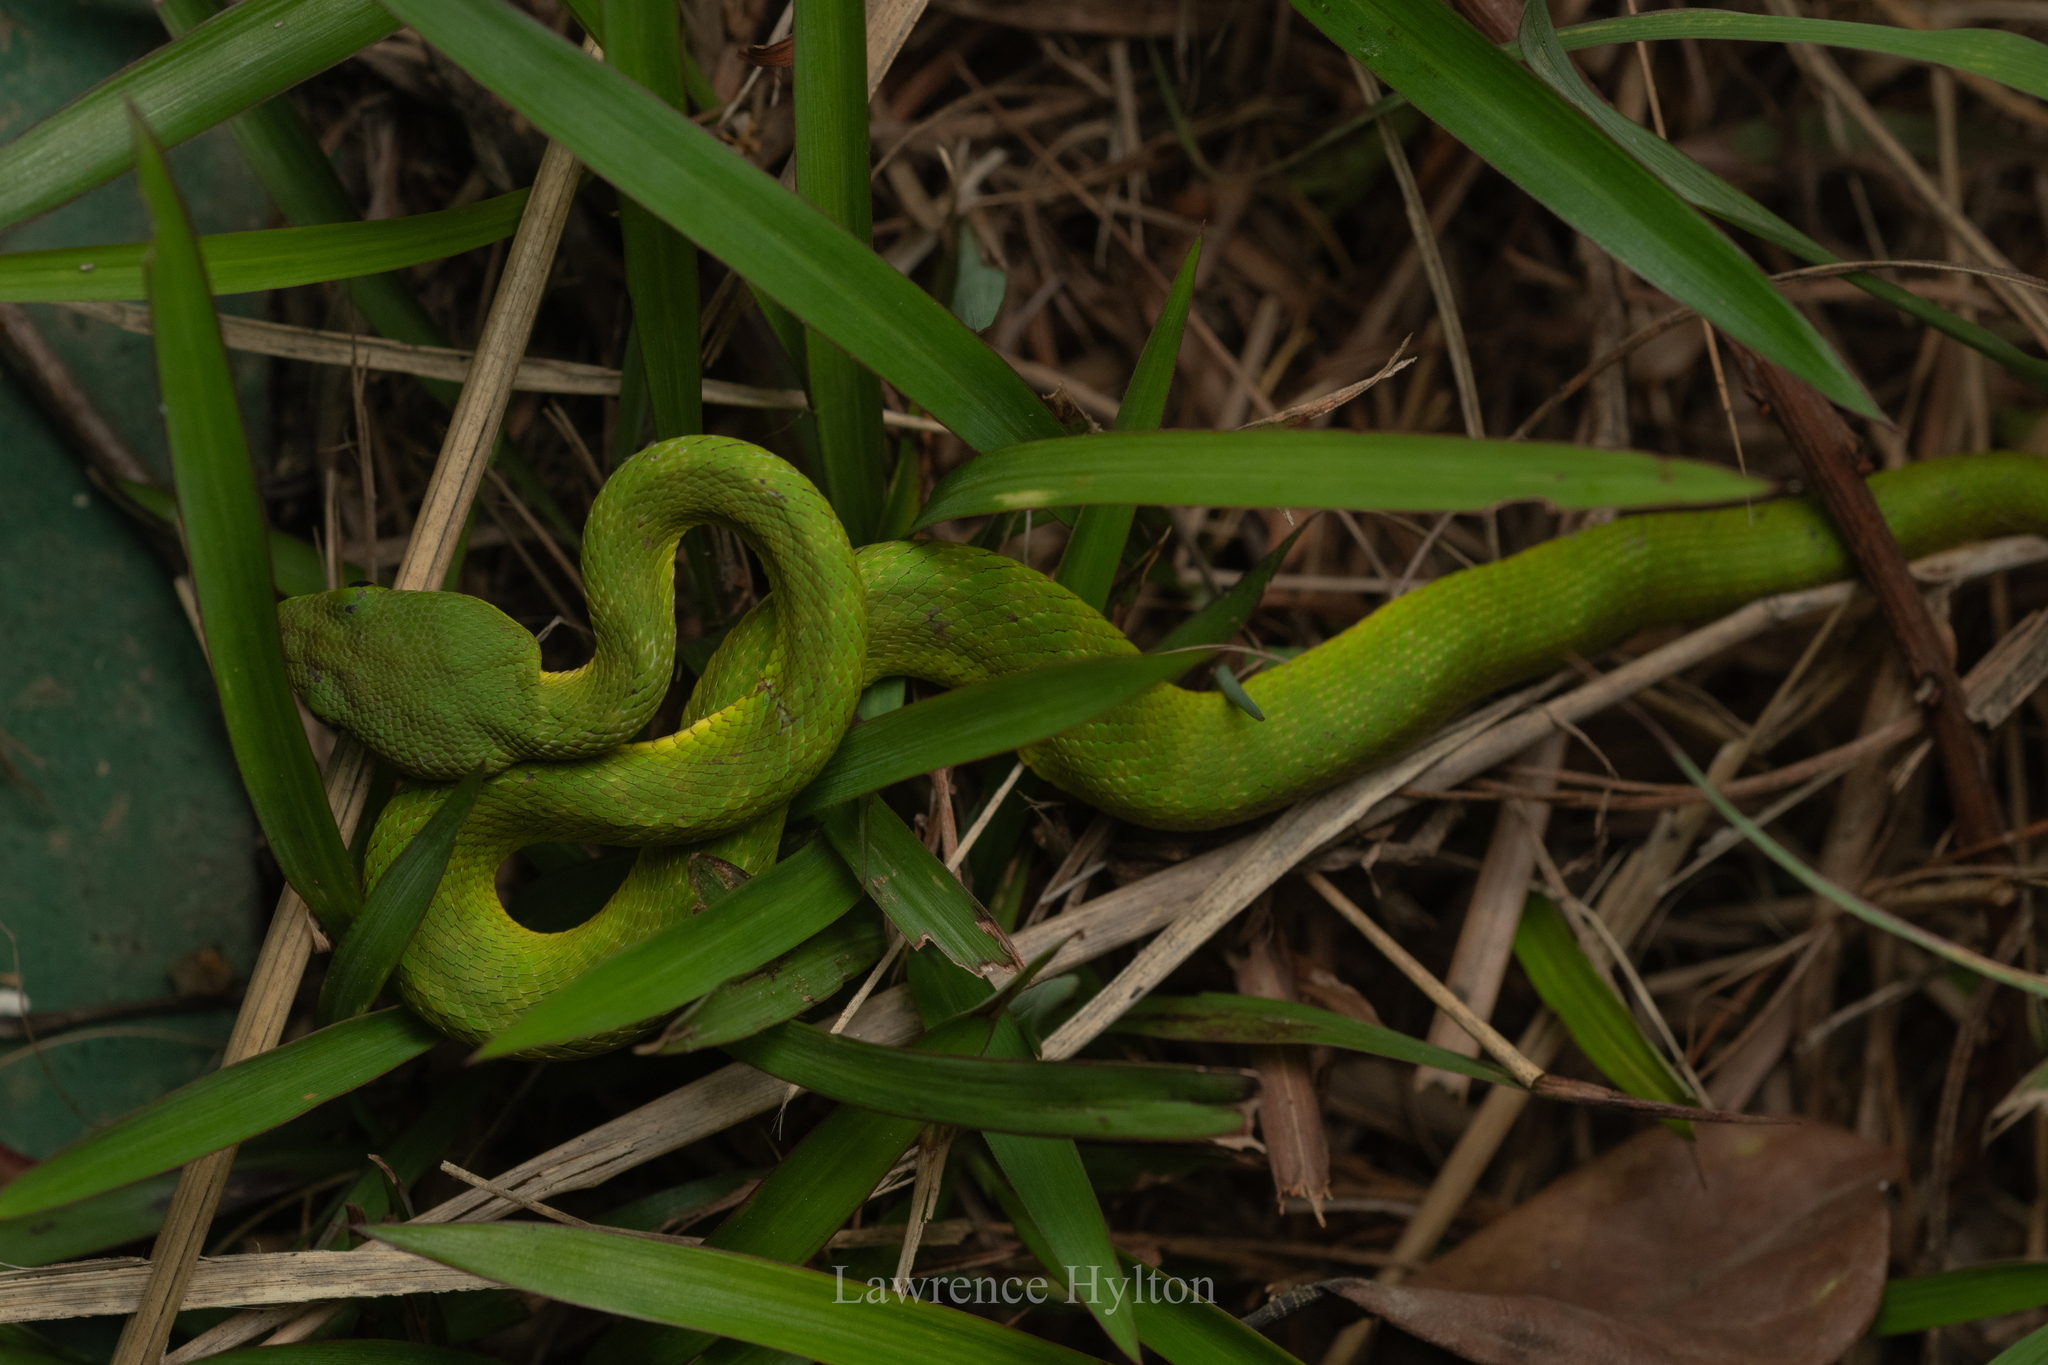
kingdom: Animalia
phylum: Chordata
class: Squamata
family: Viperidae
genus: Trimeresurus
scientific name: Trimeresurus albolabris
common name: White-lipped pitviper
